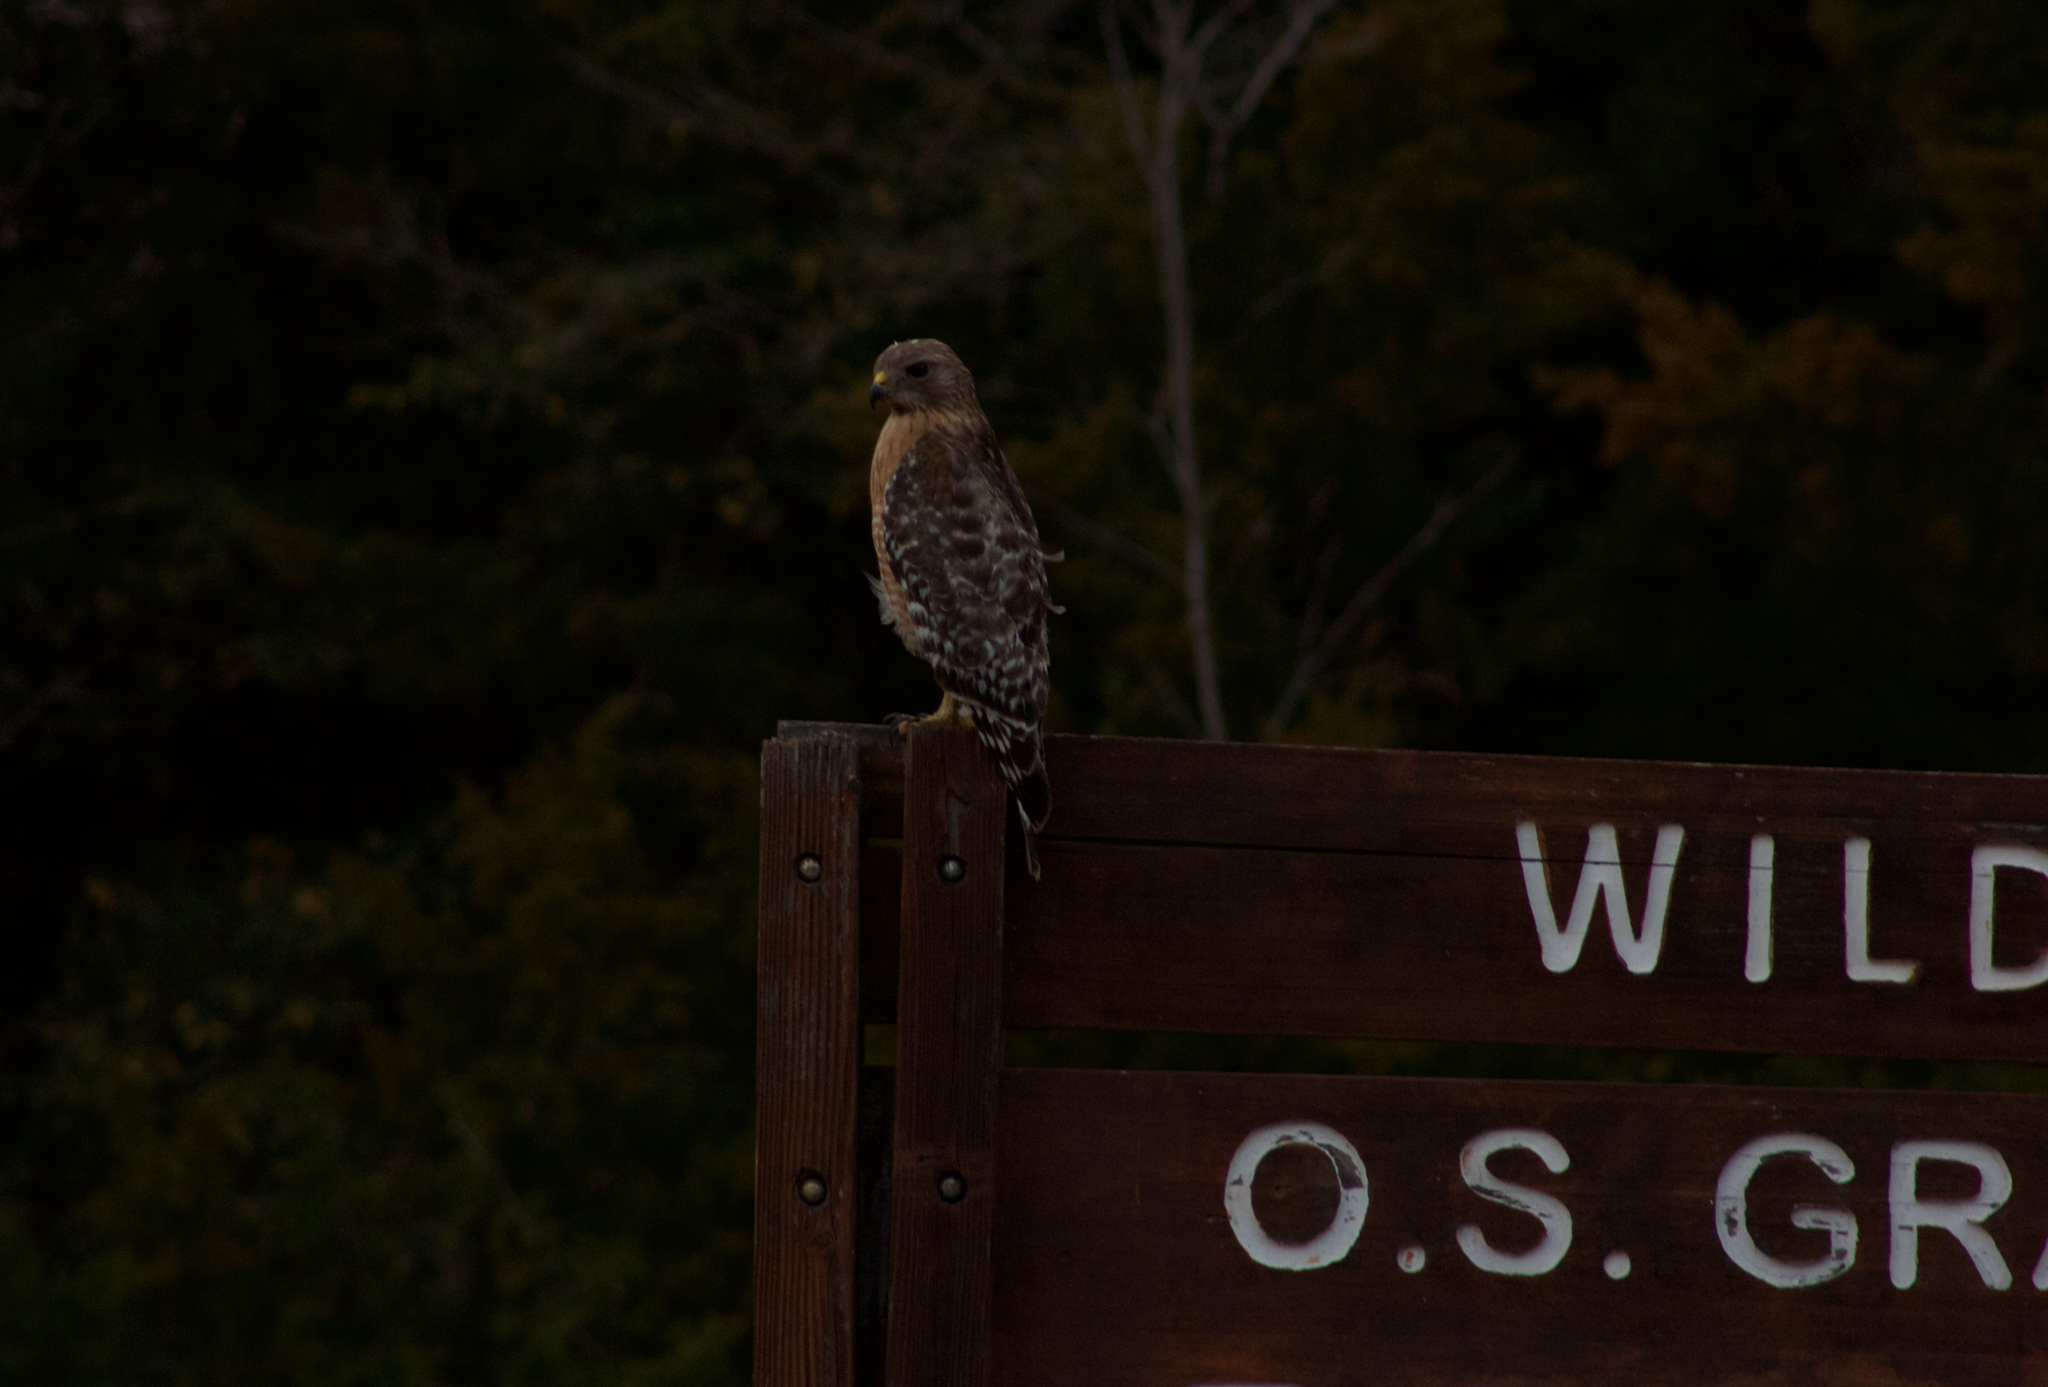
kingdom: Animalia
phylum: Chordata
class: Aves
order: Accipitriformes
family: Accipitridae
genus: Buteo
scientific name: Buteo lineatus
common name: Red-shouldered hawk
